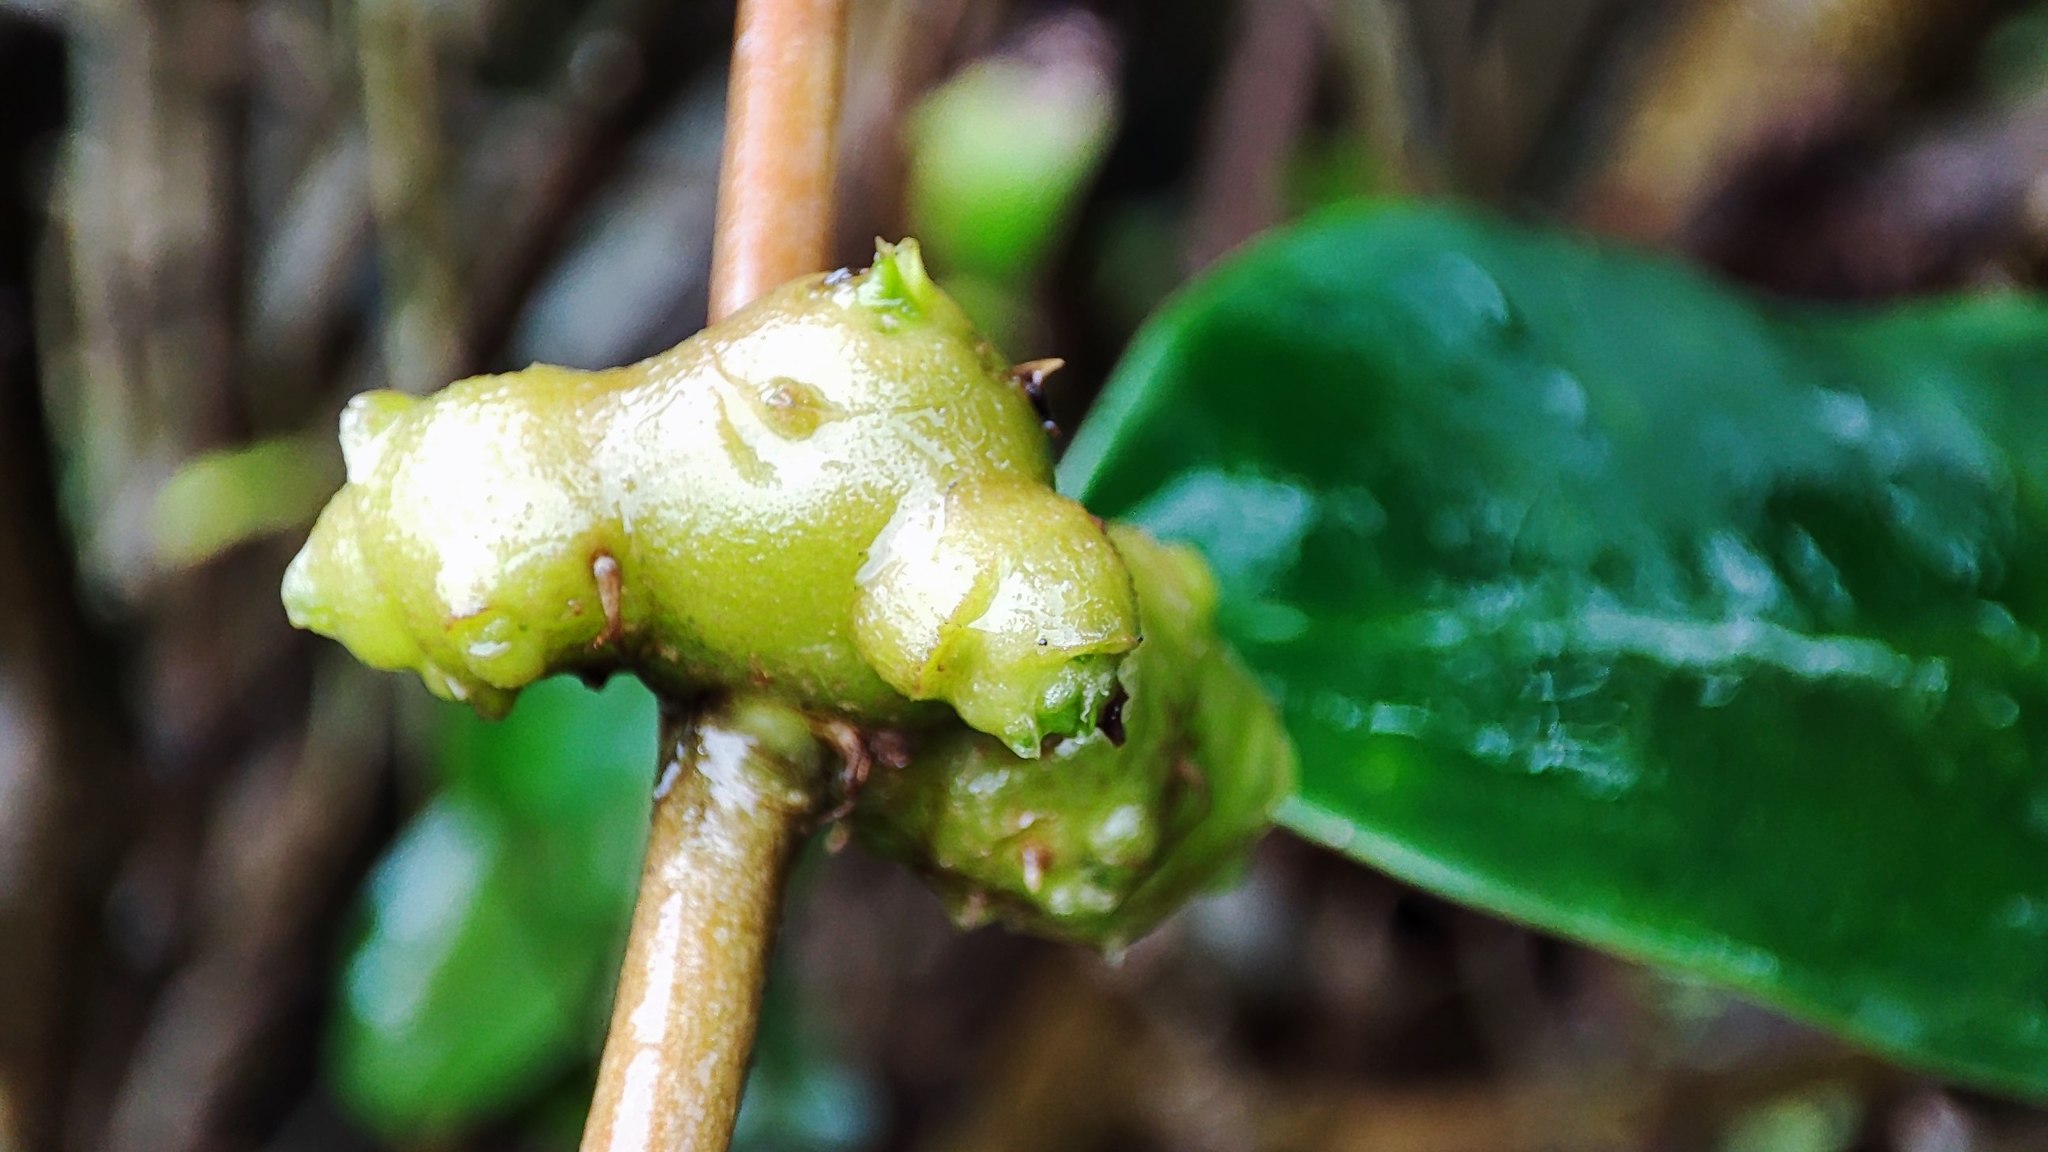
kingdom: Plantae
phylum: Tracheophyta
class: Magnoliopsida
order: Caryophyllales
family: Basellaceae
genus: Anredera
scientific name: Anredera cordifolia
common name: Heartleaf madeiravine
